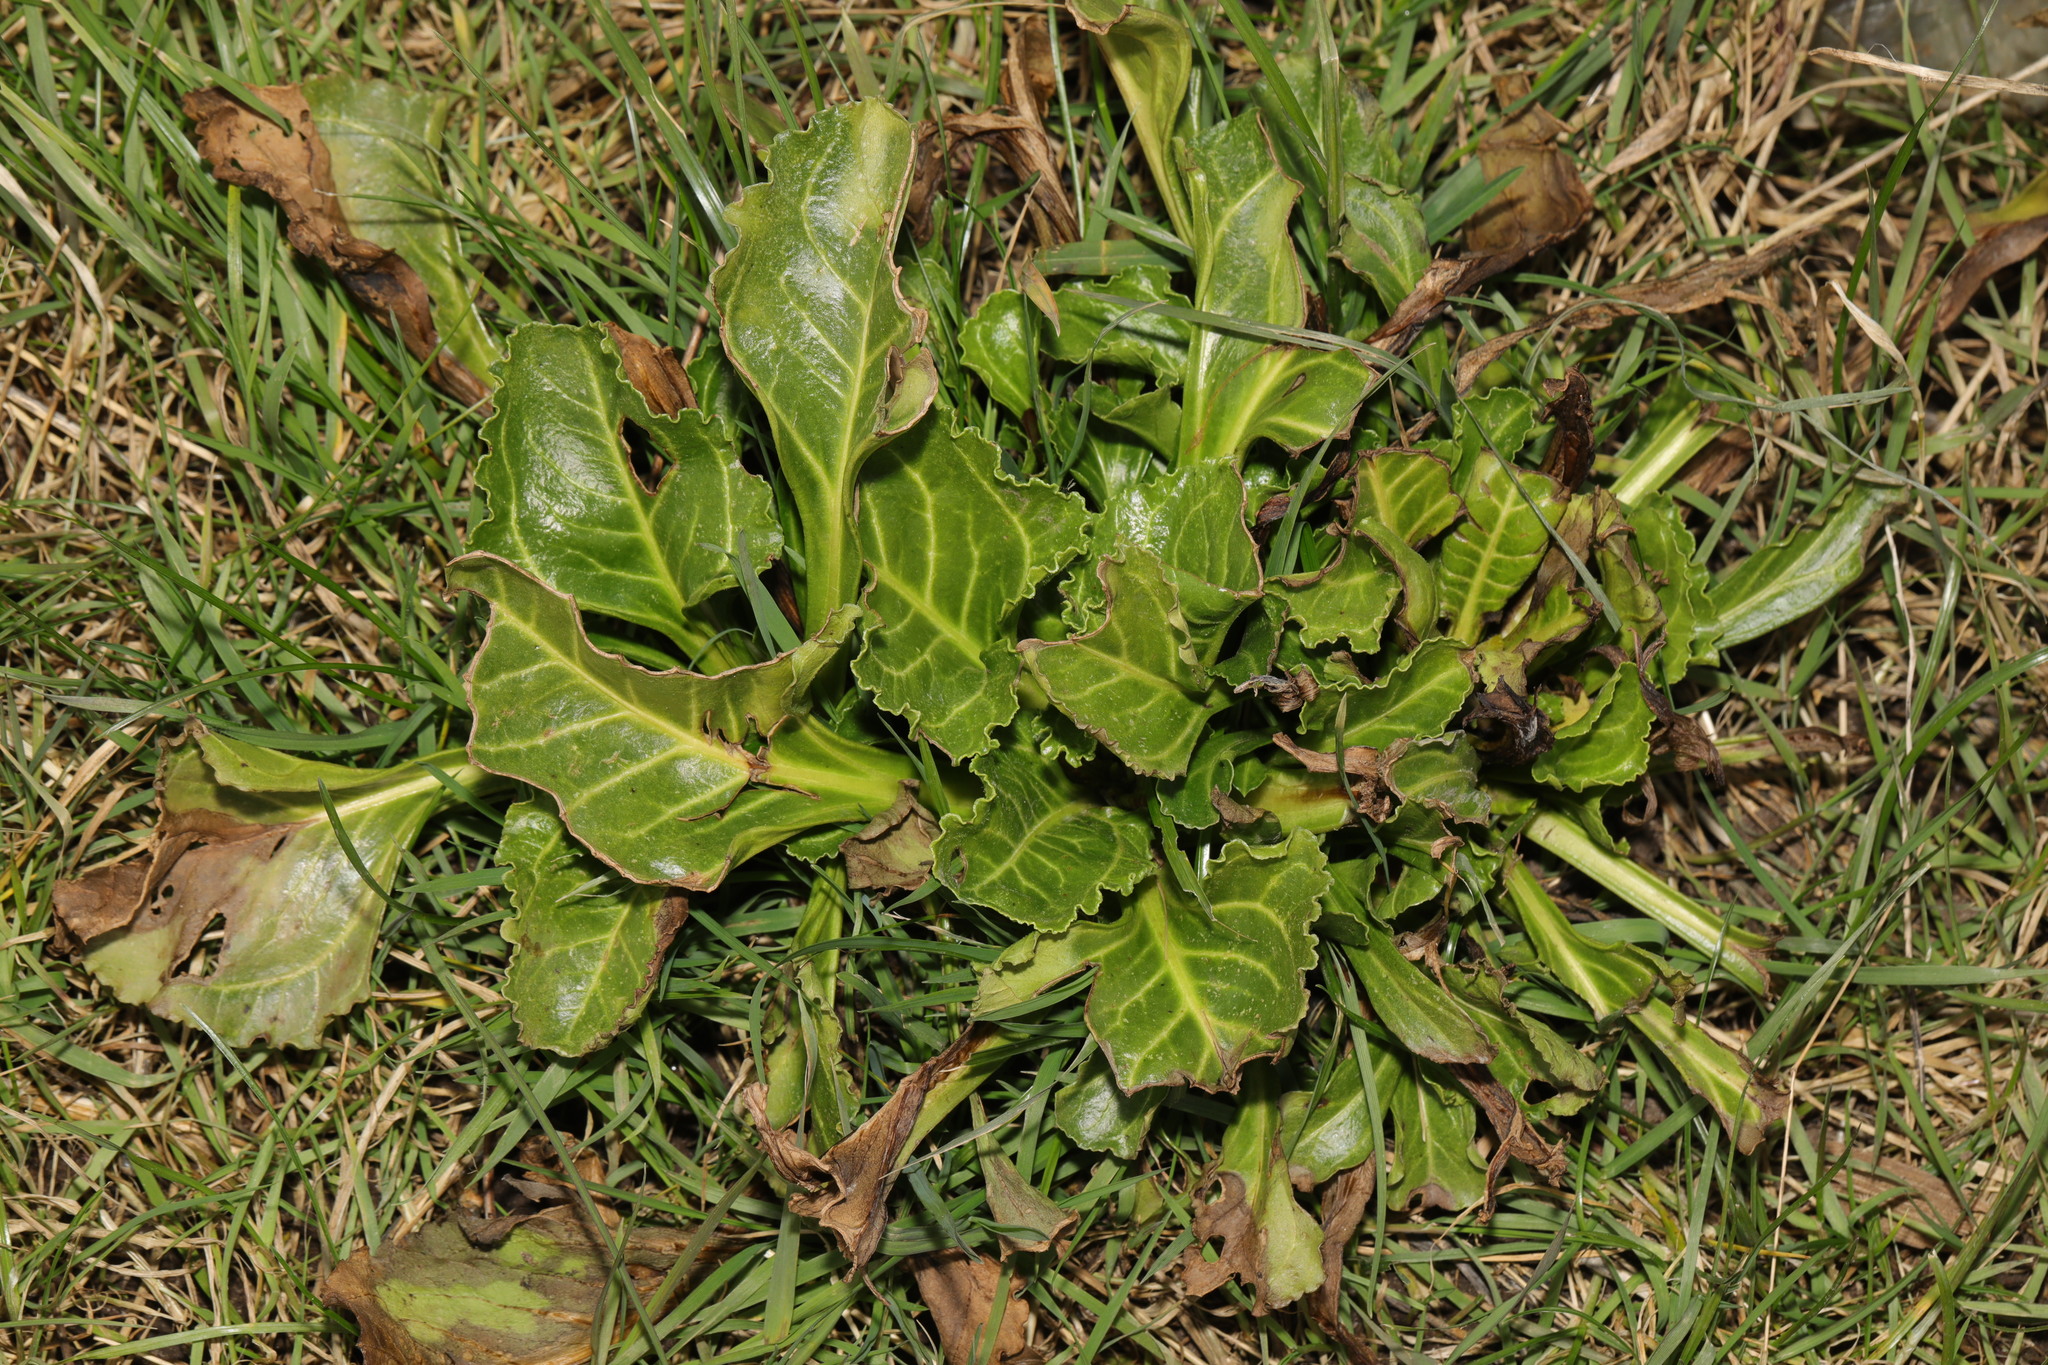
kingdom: Plantae
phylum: Tracheophyta
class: Magnoliopsida
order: Caryophyllales
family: Amaranthaceae
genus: Beta
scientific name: Beta vulgaris
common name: Beet
